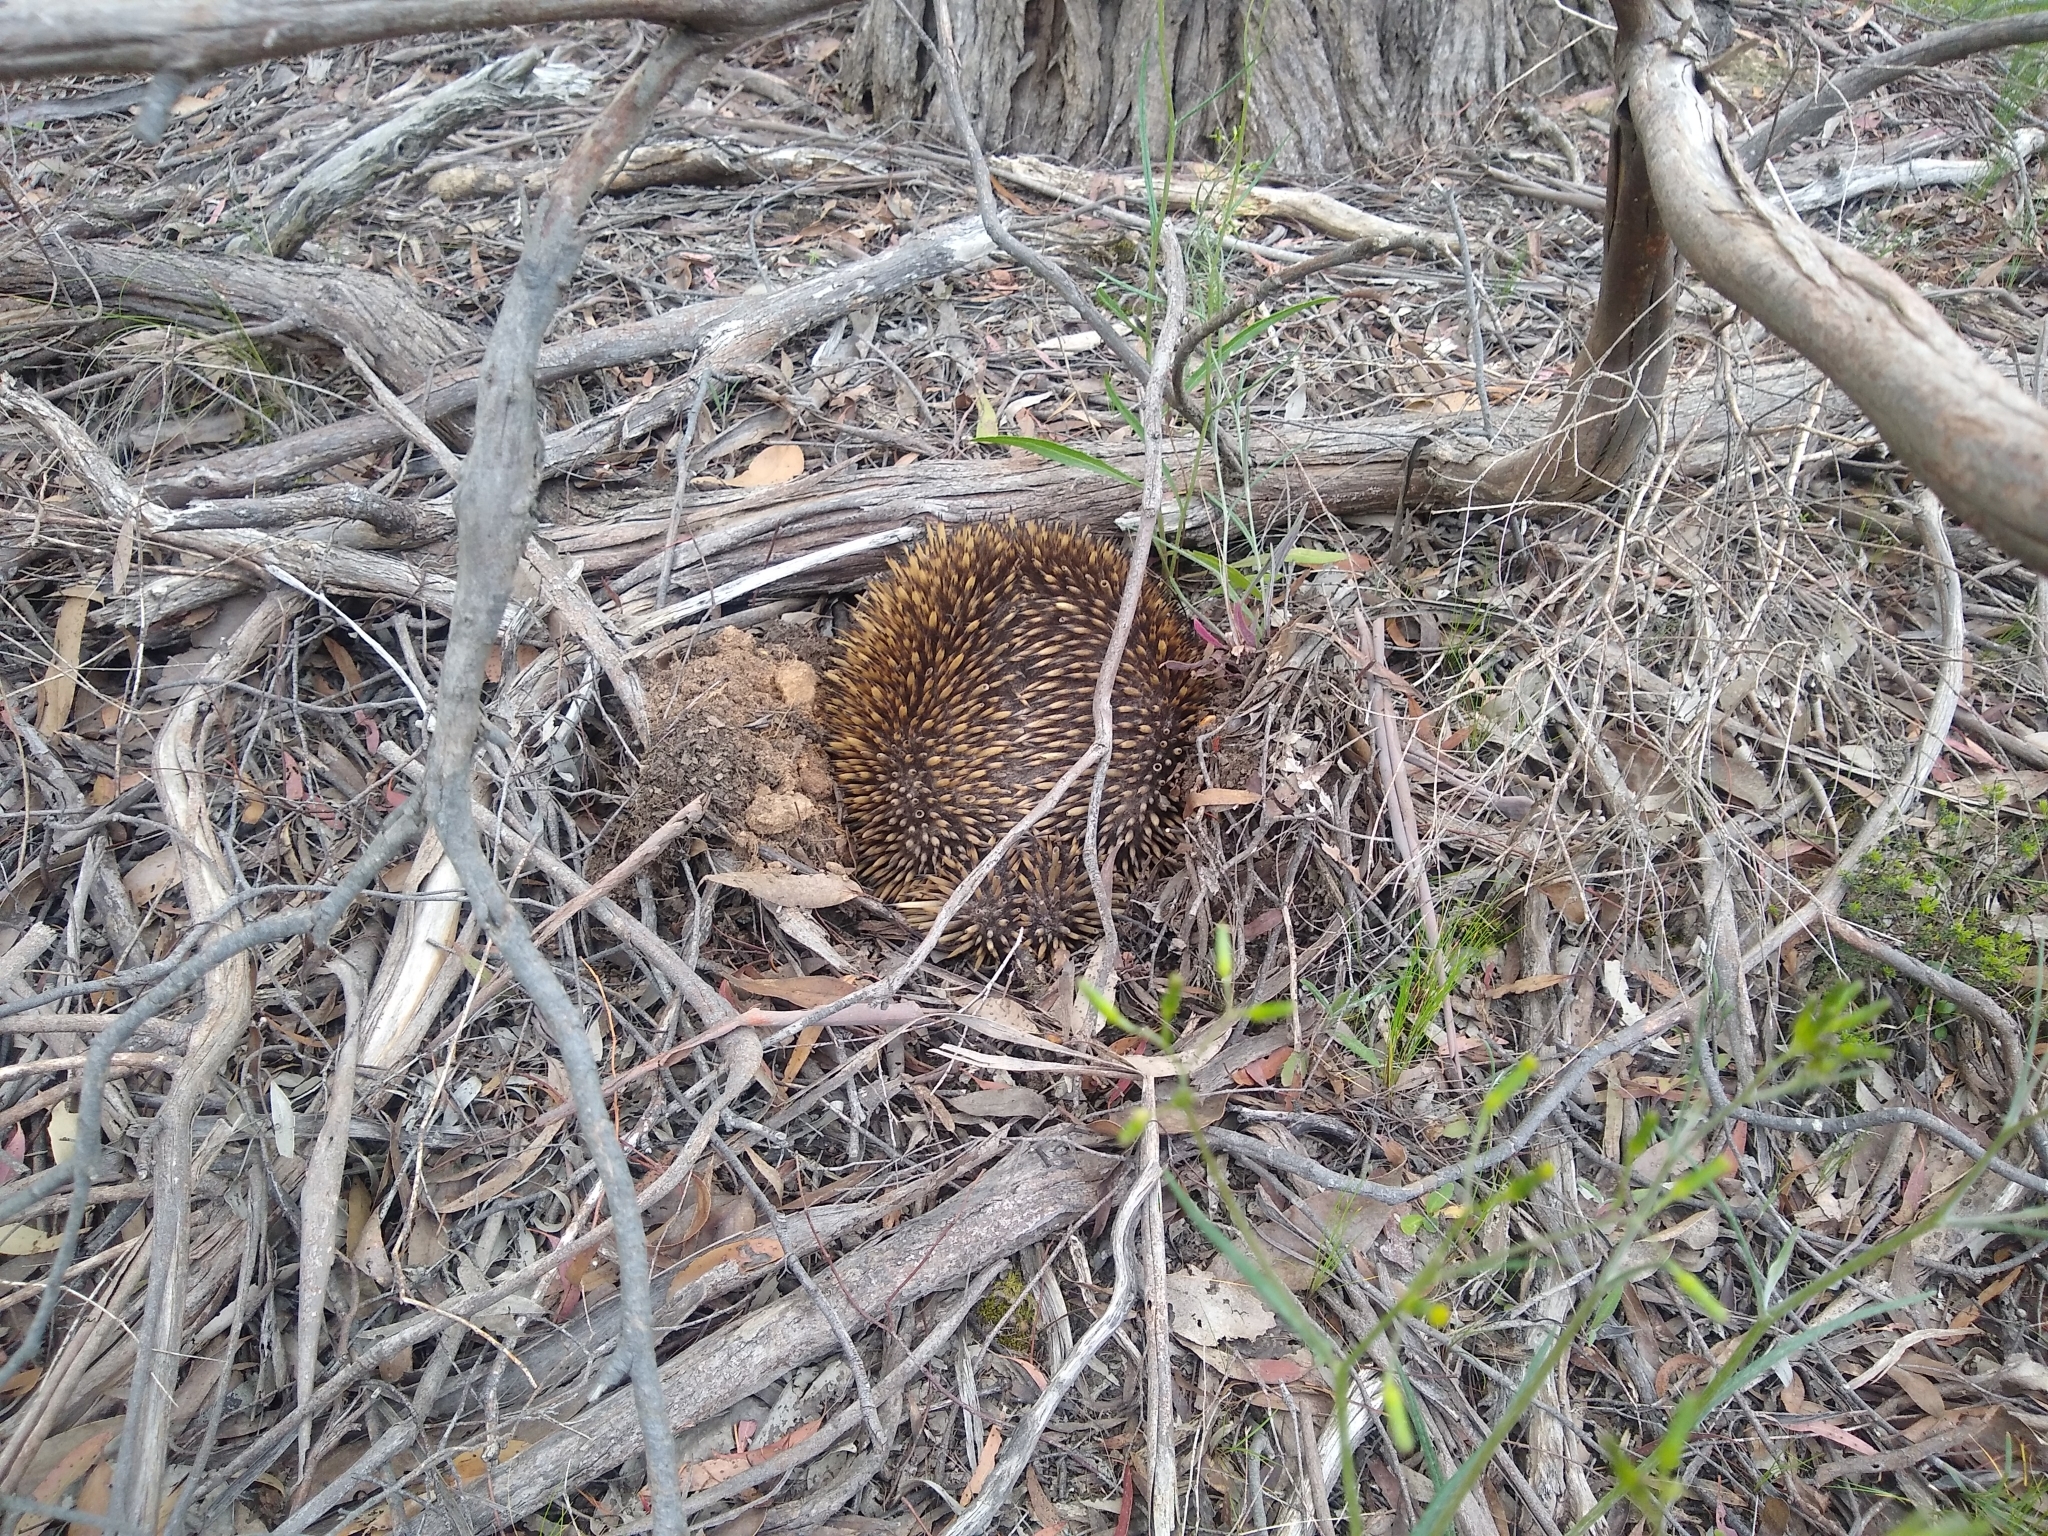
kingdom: Animalia
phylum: Chordata
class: Mammalia
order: Monotremata
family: Tachyglossidae
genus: Tachyglossus
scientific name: Tachyglossus aculeatus
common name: Short-beaked echidna
